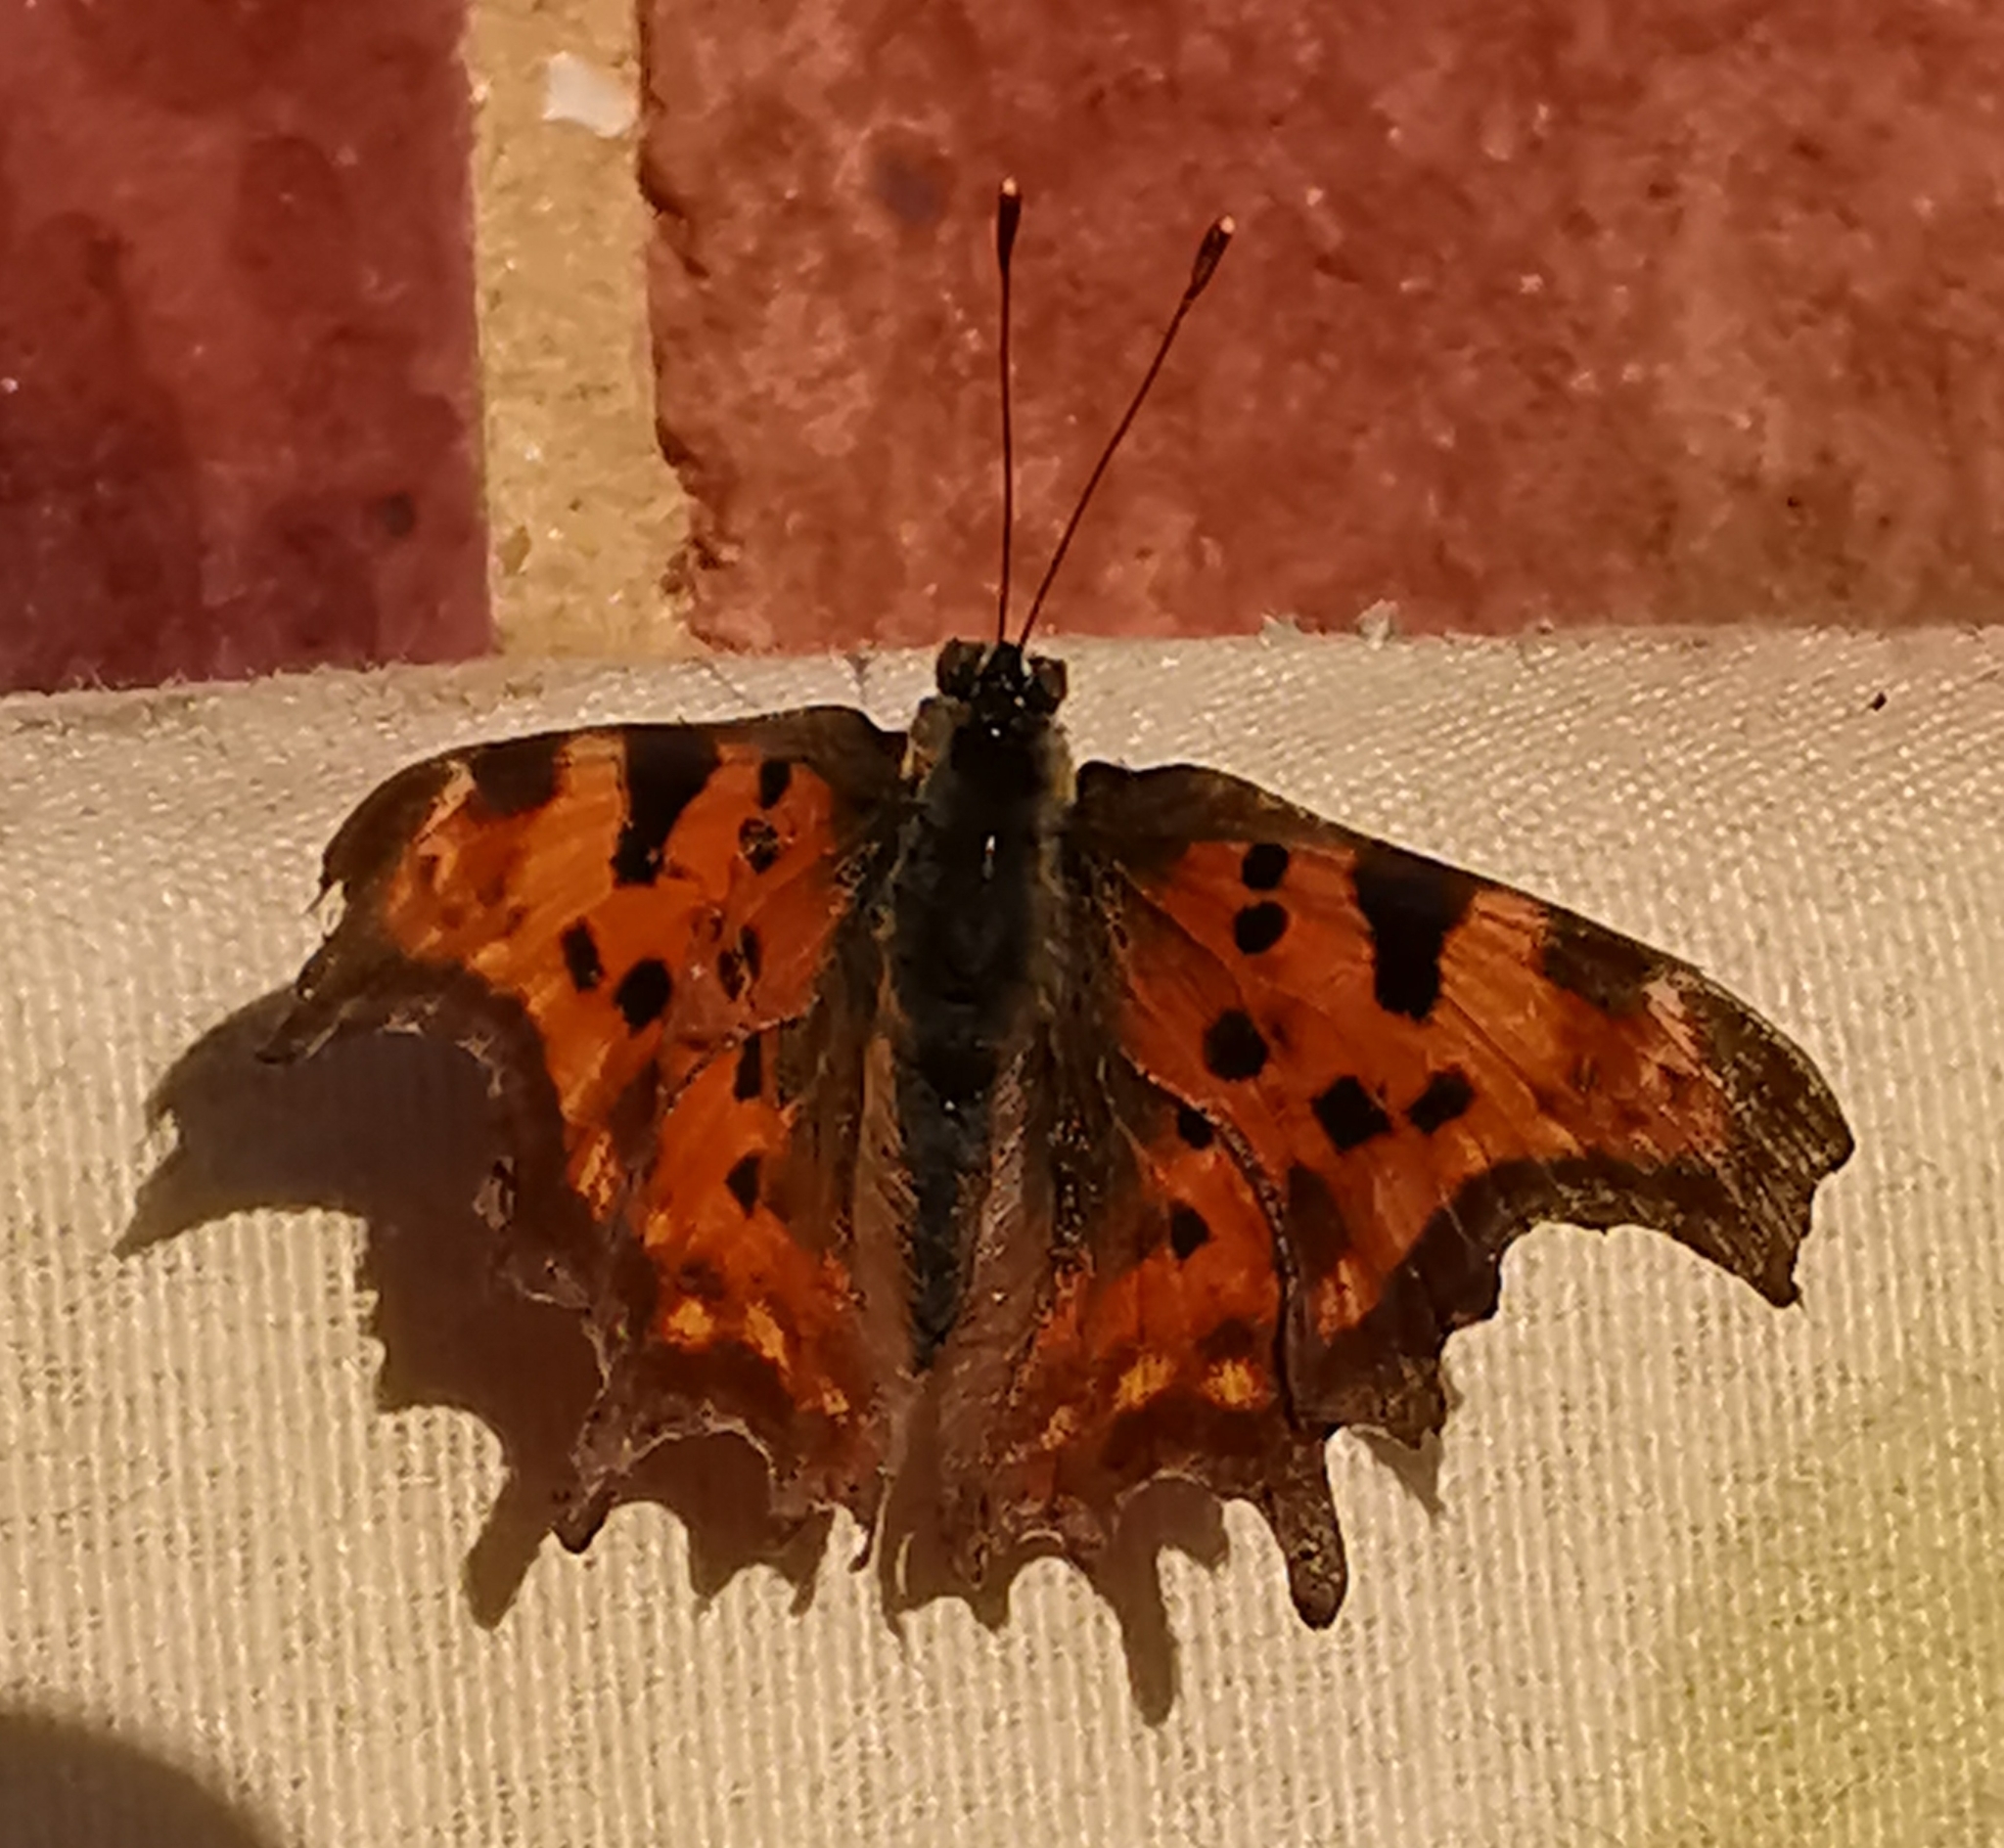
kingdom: Animalia
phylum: Arthropoda
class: Insecta
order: Lepidoptera
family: Nymphalidae
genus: Polygonia
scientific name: Polygonia c-album
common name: Comma
